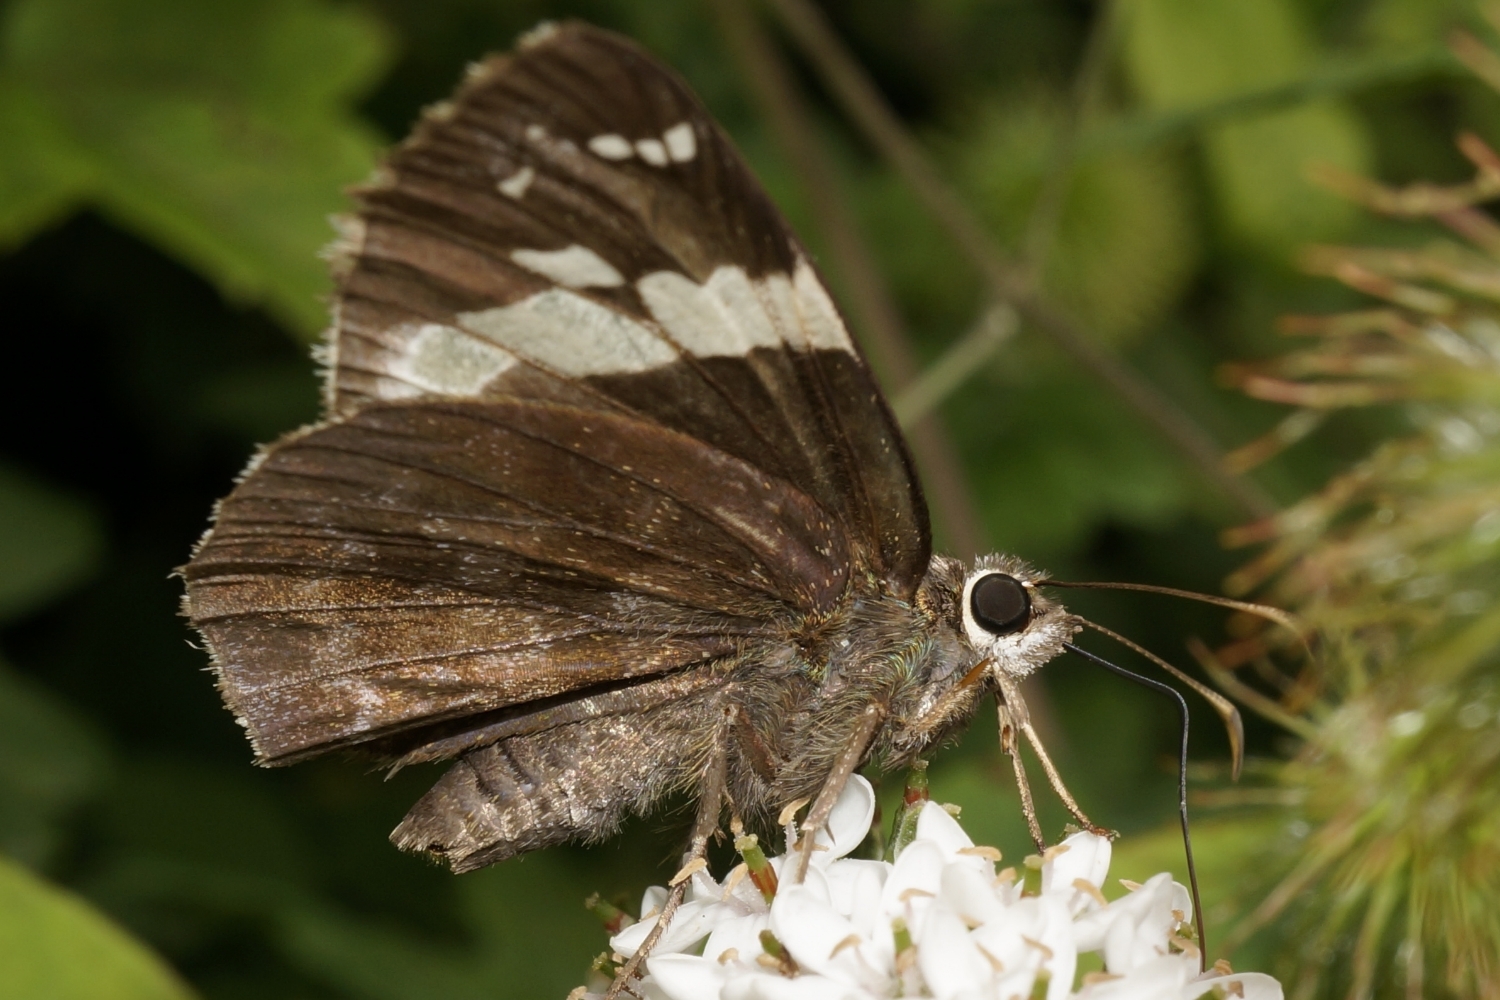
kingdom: Animalia
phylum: Arthropoda
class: Insecta
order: Lepidoptera
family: Hesperiidae
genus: Lobocla
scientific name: Lobocla bifasciatus
